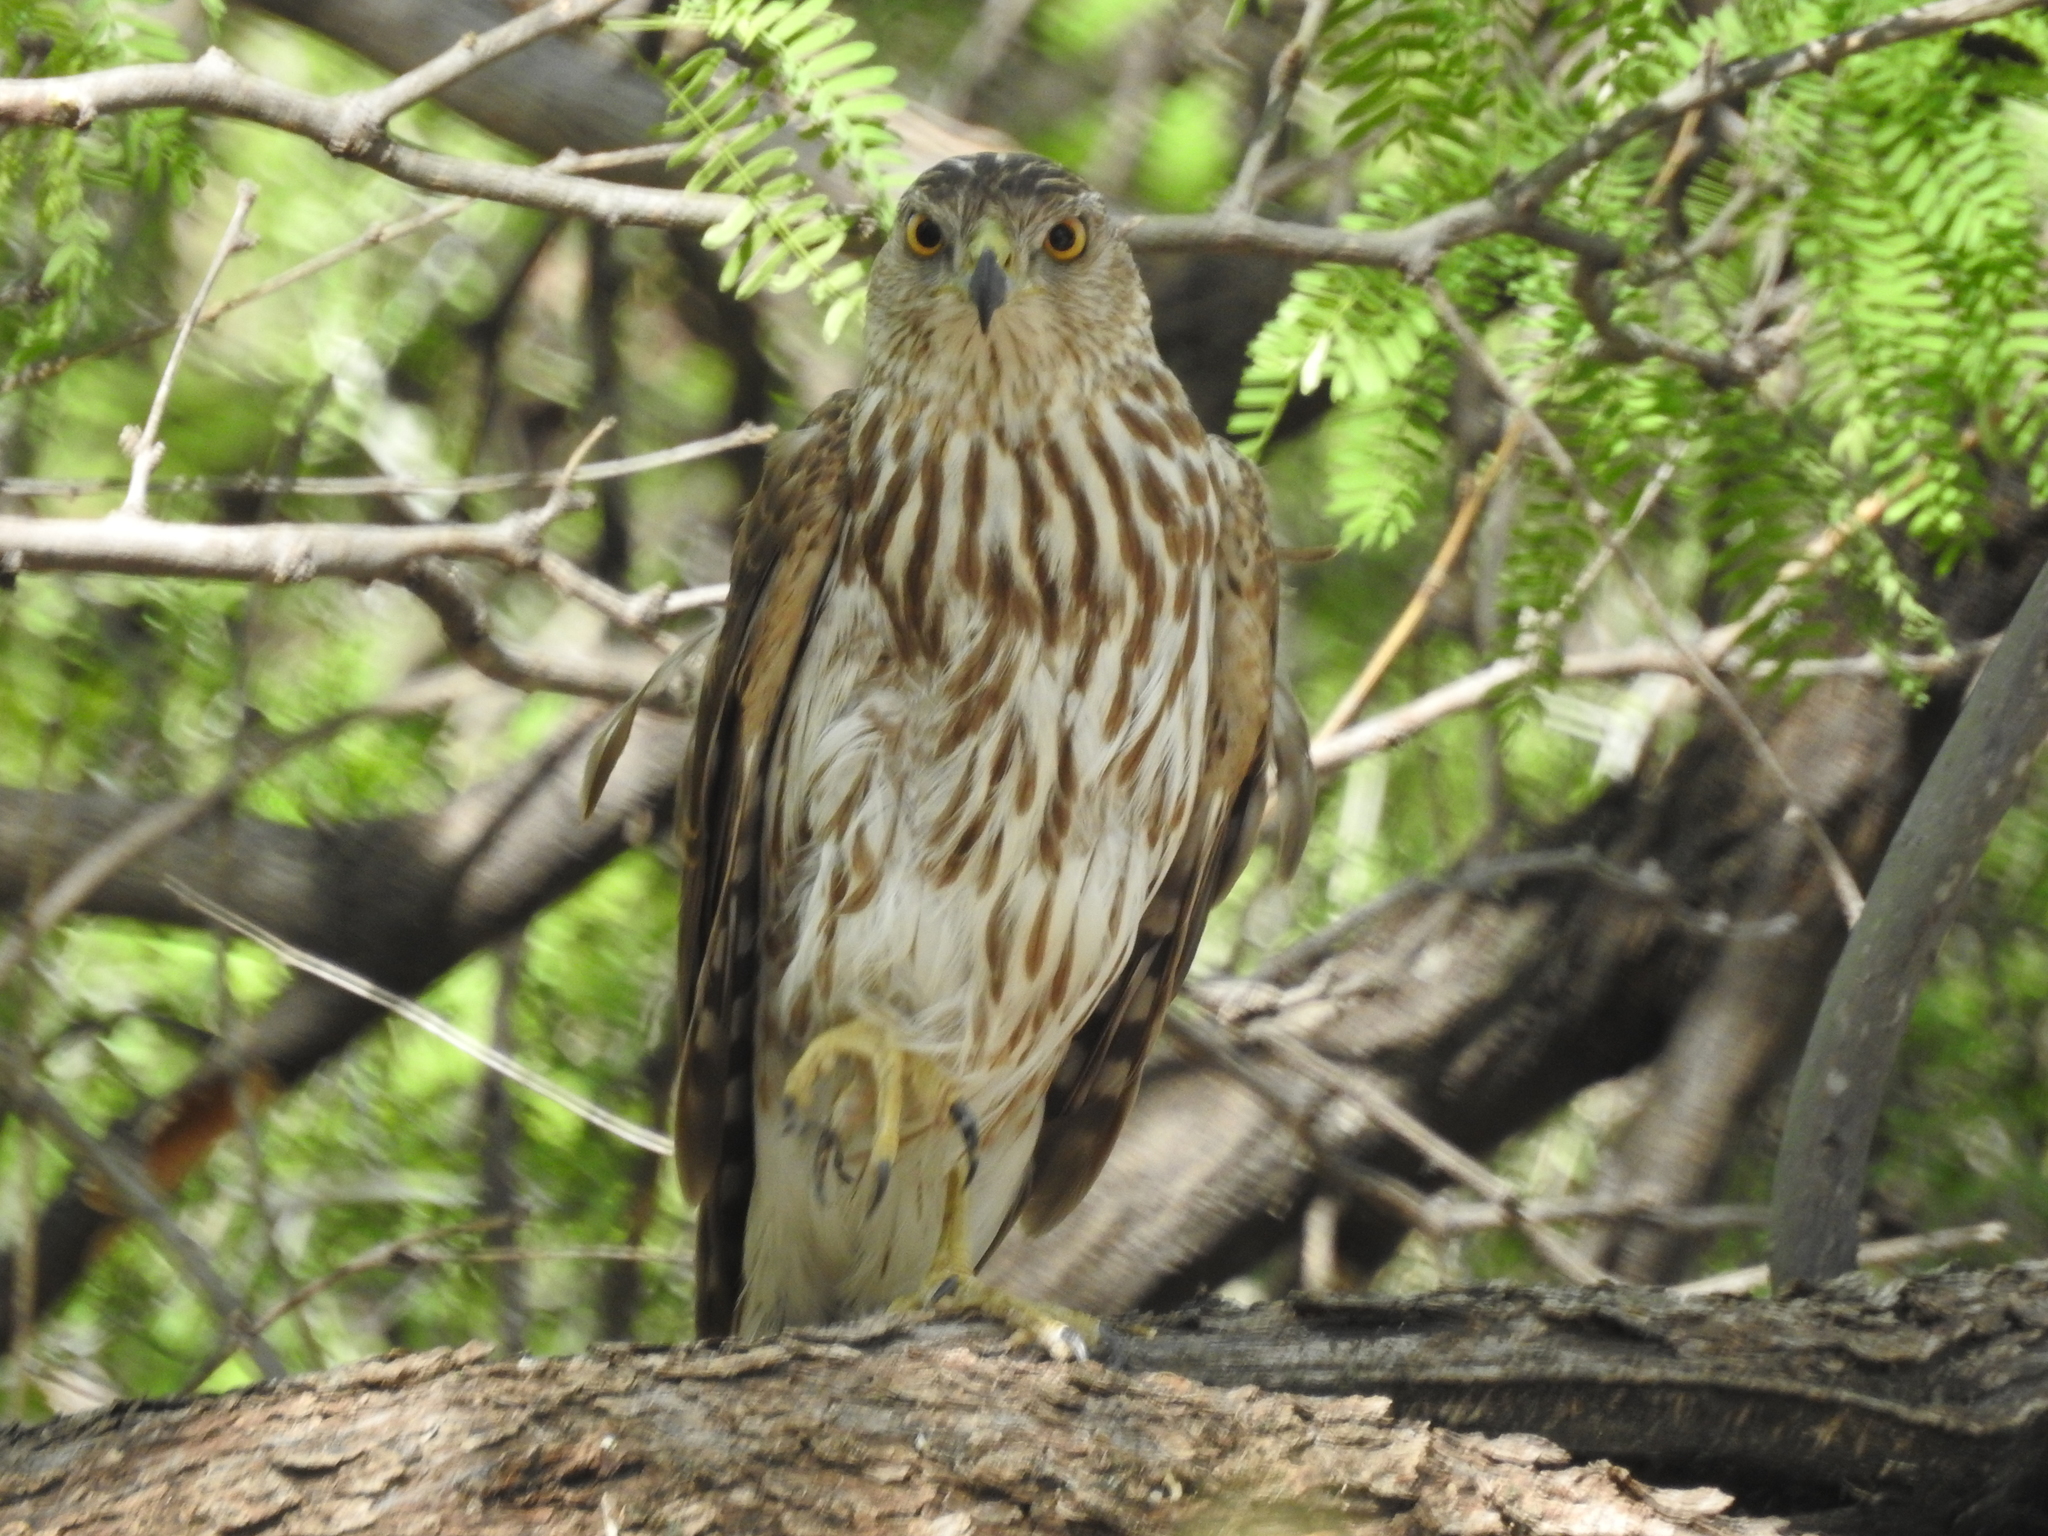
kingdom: Animalia
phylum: Chordata
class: Aves
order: Accipitriformes
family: Accipitridae
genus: Accipiter
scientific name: Accipiter cooperii
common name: Cooper's hawk
